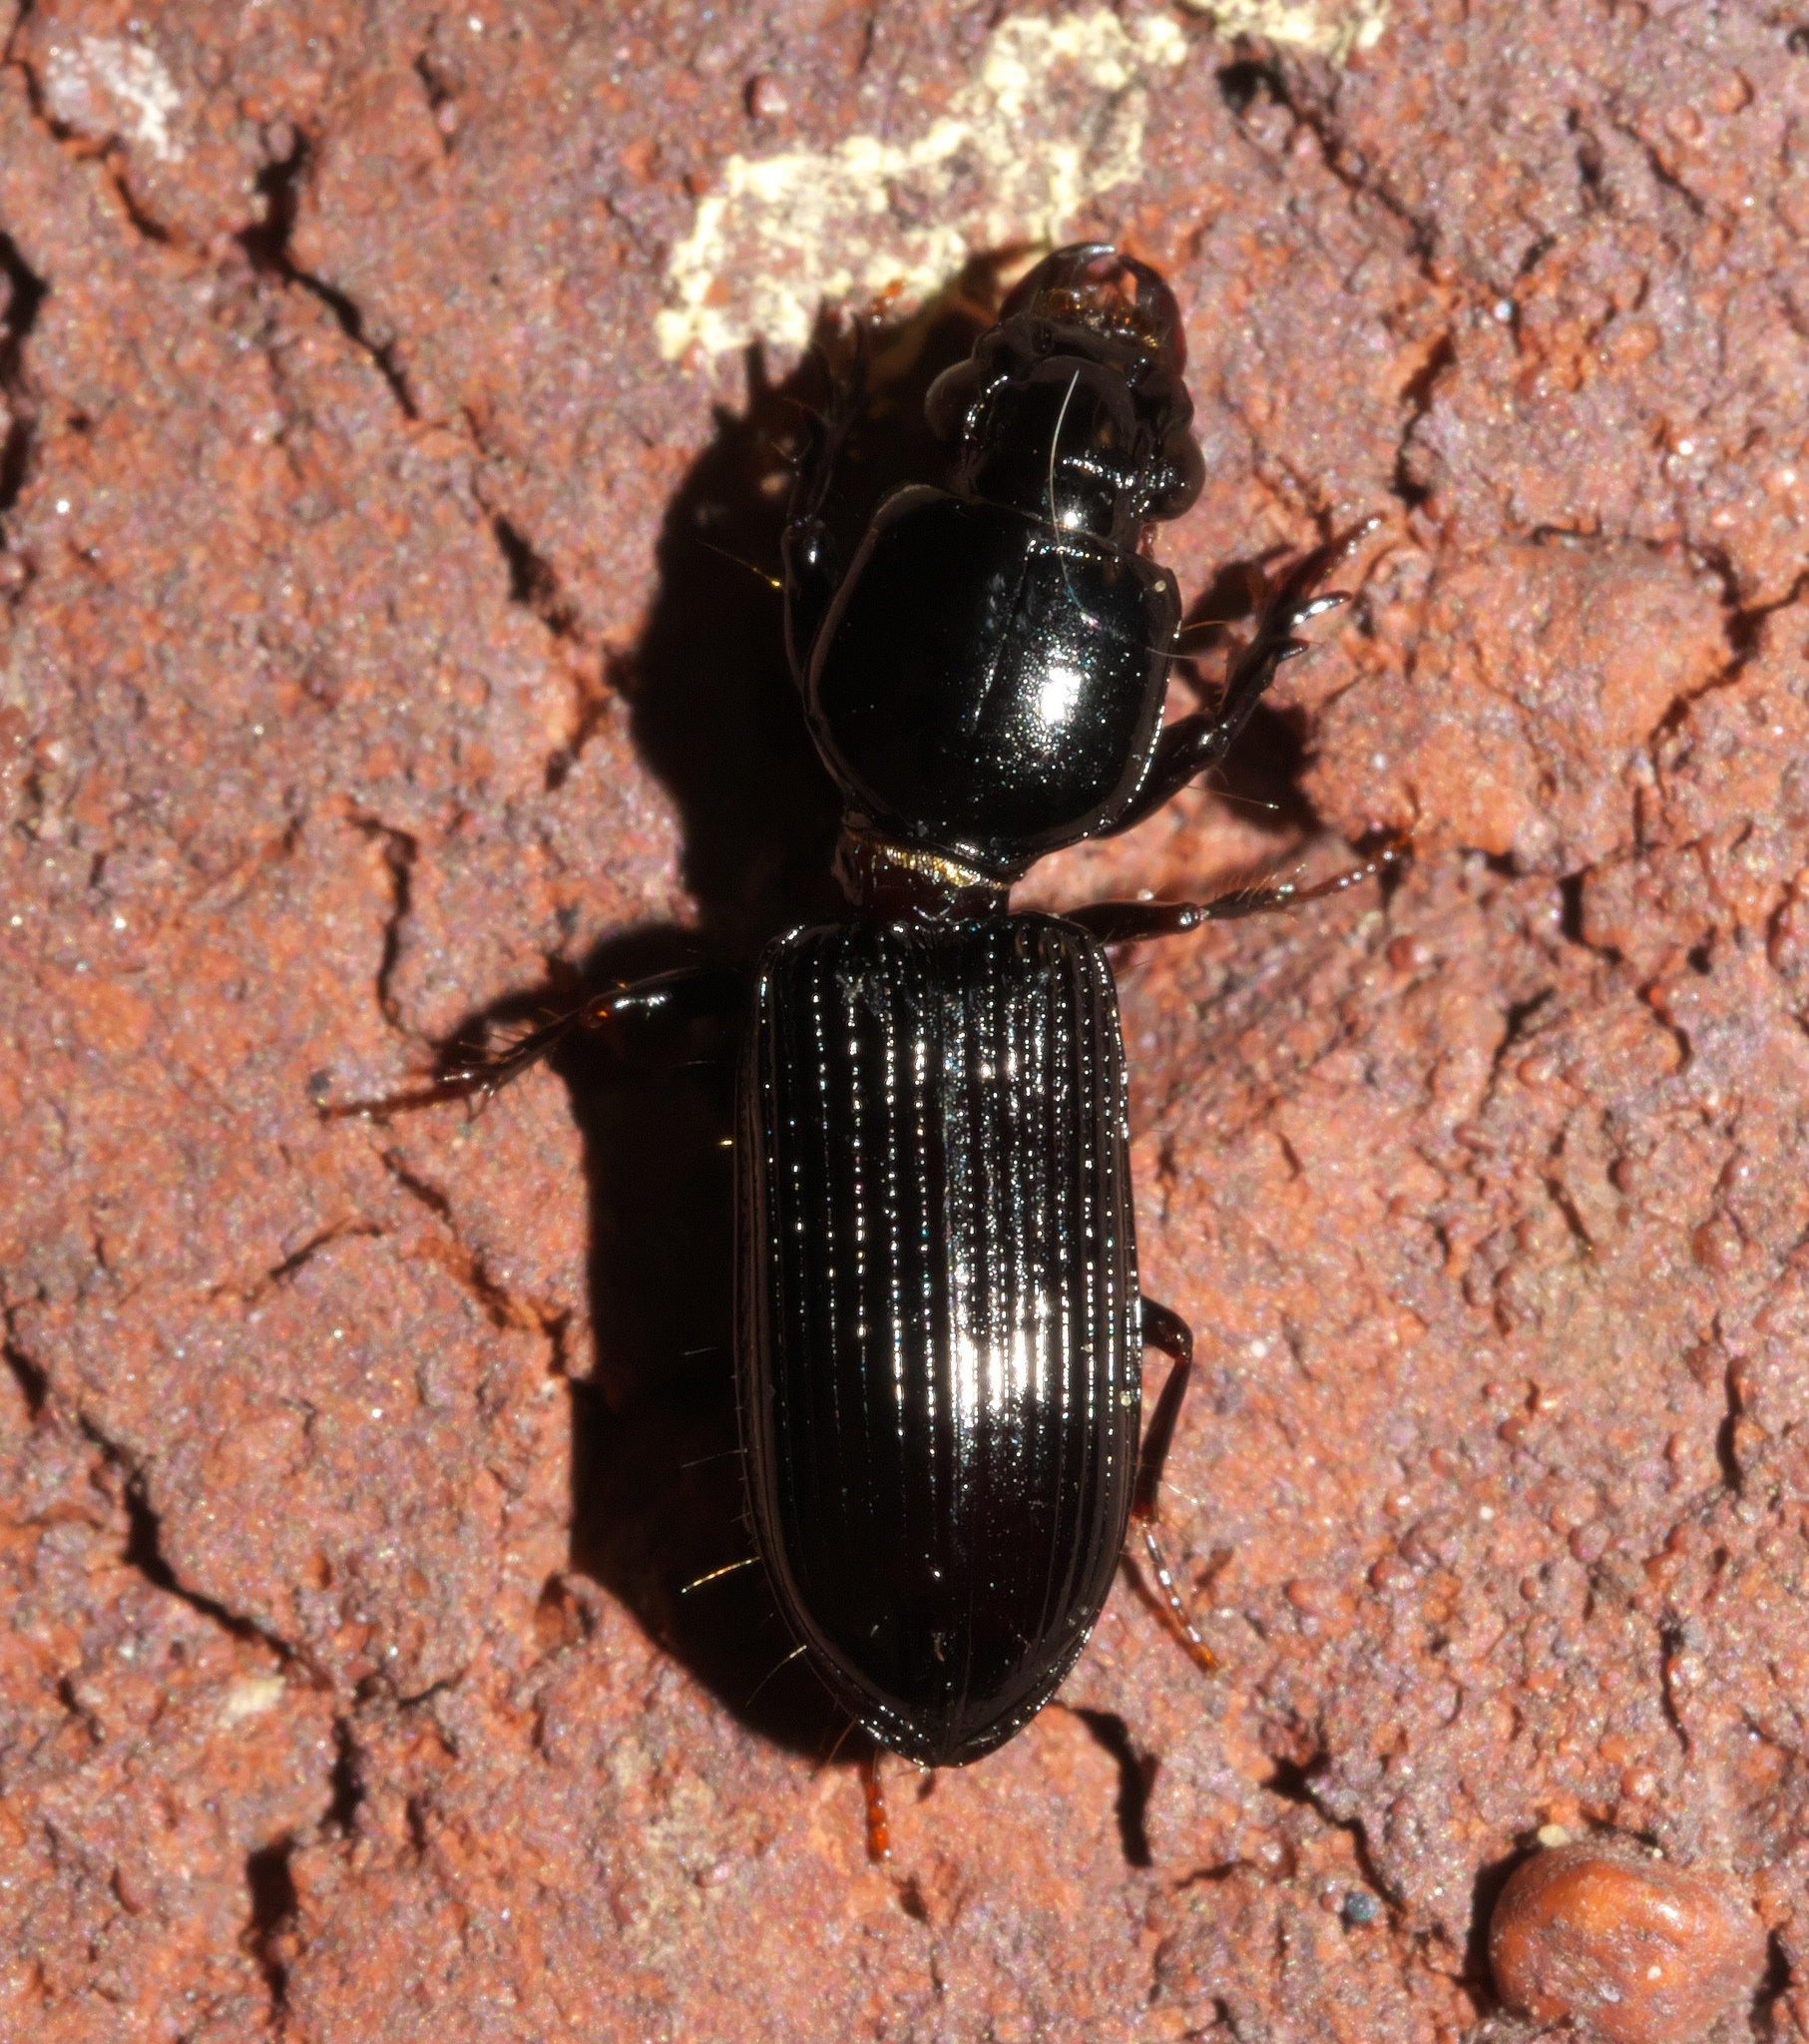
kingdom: Animalia
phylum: Arthropoda
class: Insecta
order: Coleoptera
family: Carabidae
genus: Semiclivina
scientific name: Semiclivina dentipes
